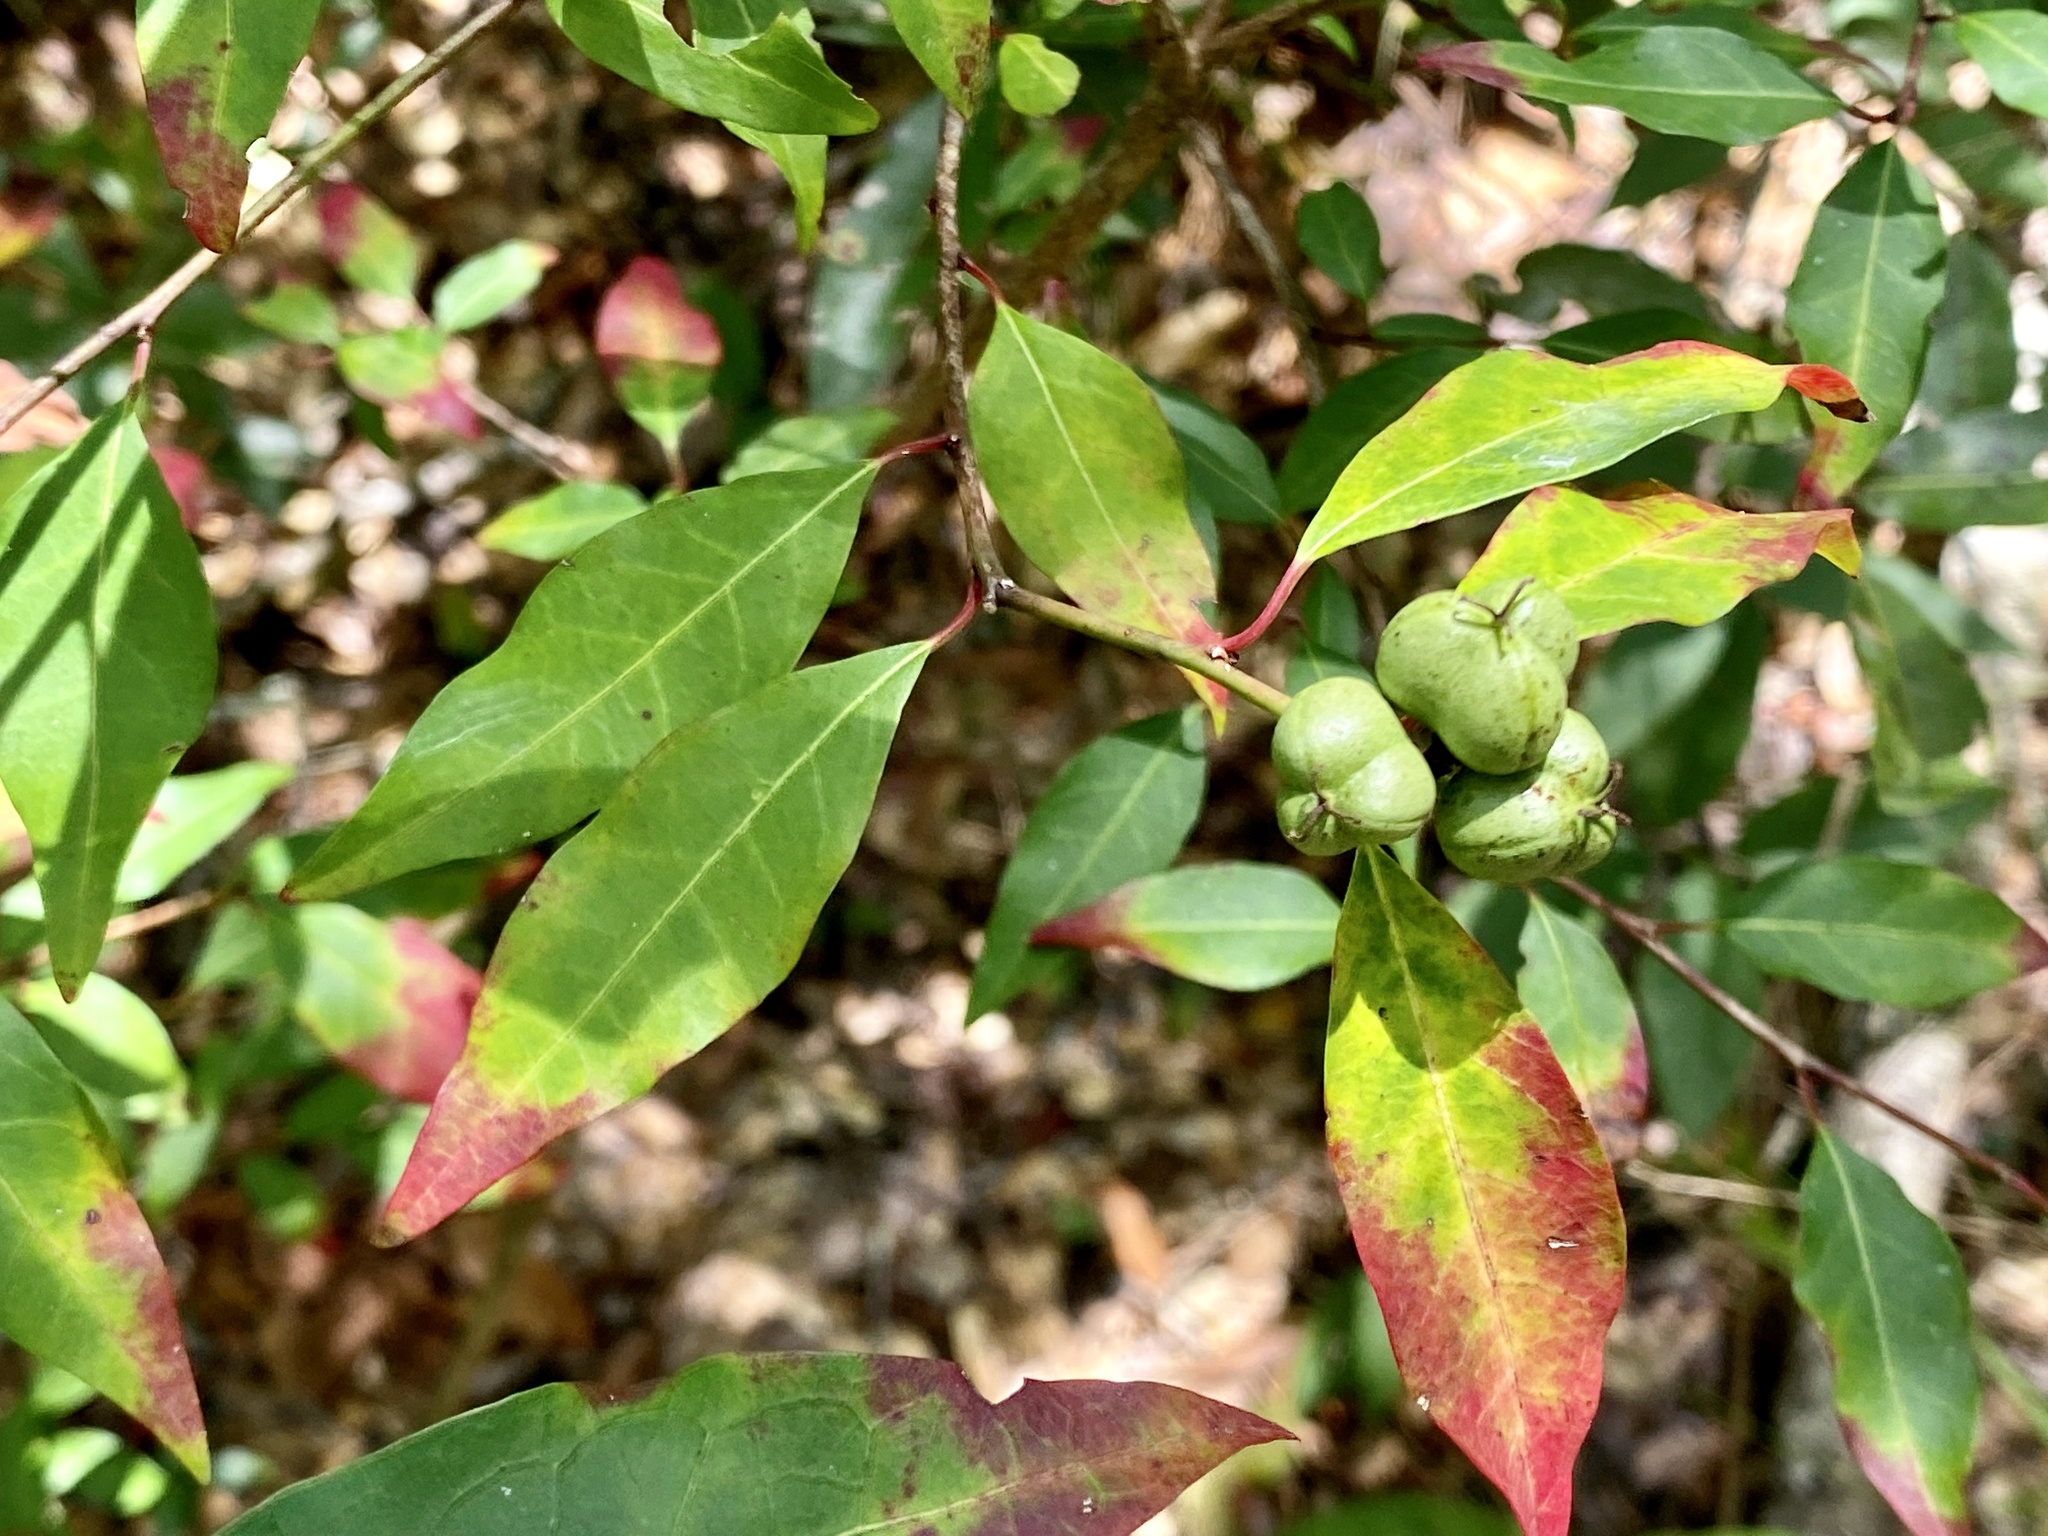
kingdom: Plantae
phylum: Tracheophyta
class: Magnoliopsida
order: Malpighiales
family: Euphorbiaceae
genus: Ditrysinia
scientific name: Ditrysinia fruticosa
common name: Gulf sebastian-bush
